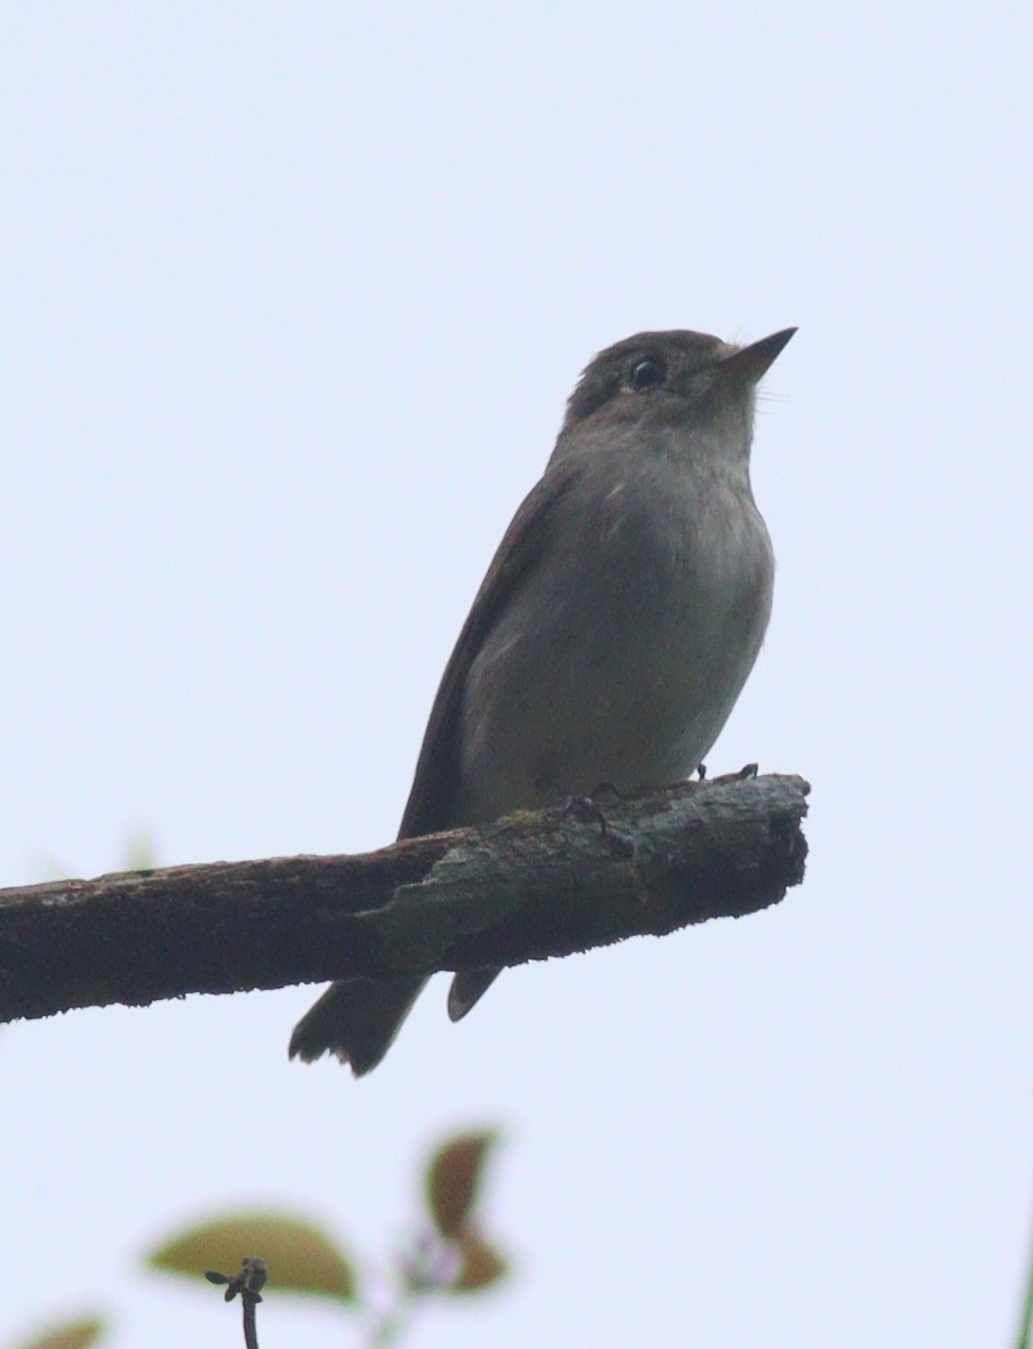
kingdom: Animalia
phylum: Chordata
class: Aves
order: Passeriformes
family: Muscicapidae
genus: Muscicapa
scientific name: Muscicapa latirostris
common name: Asian brown flycatcher
